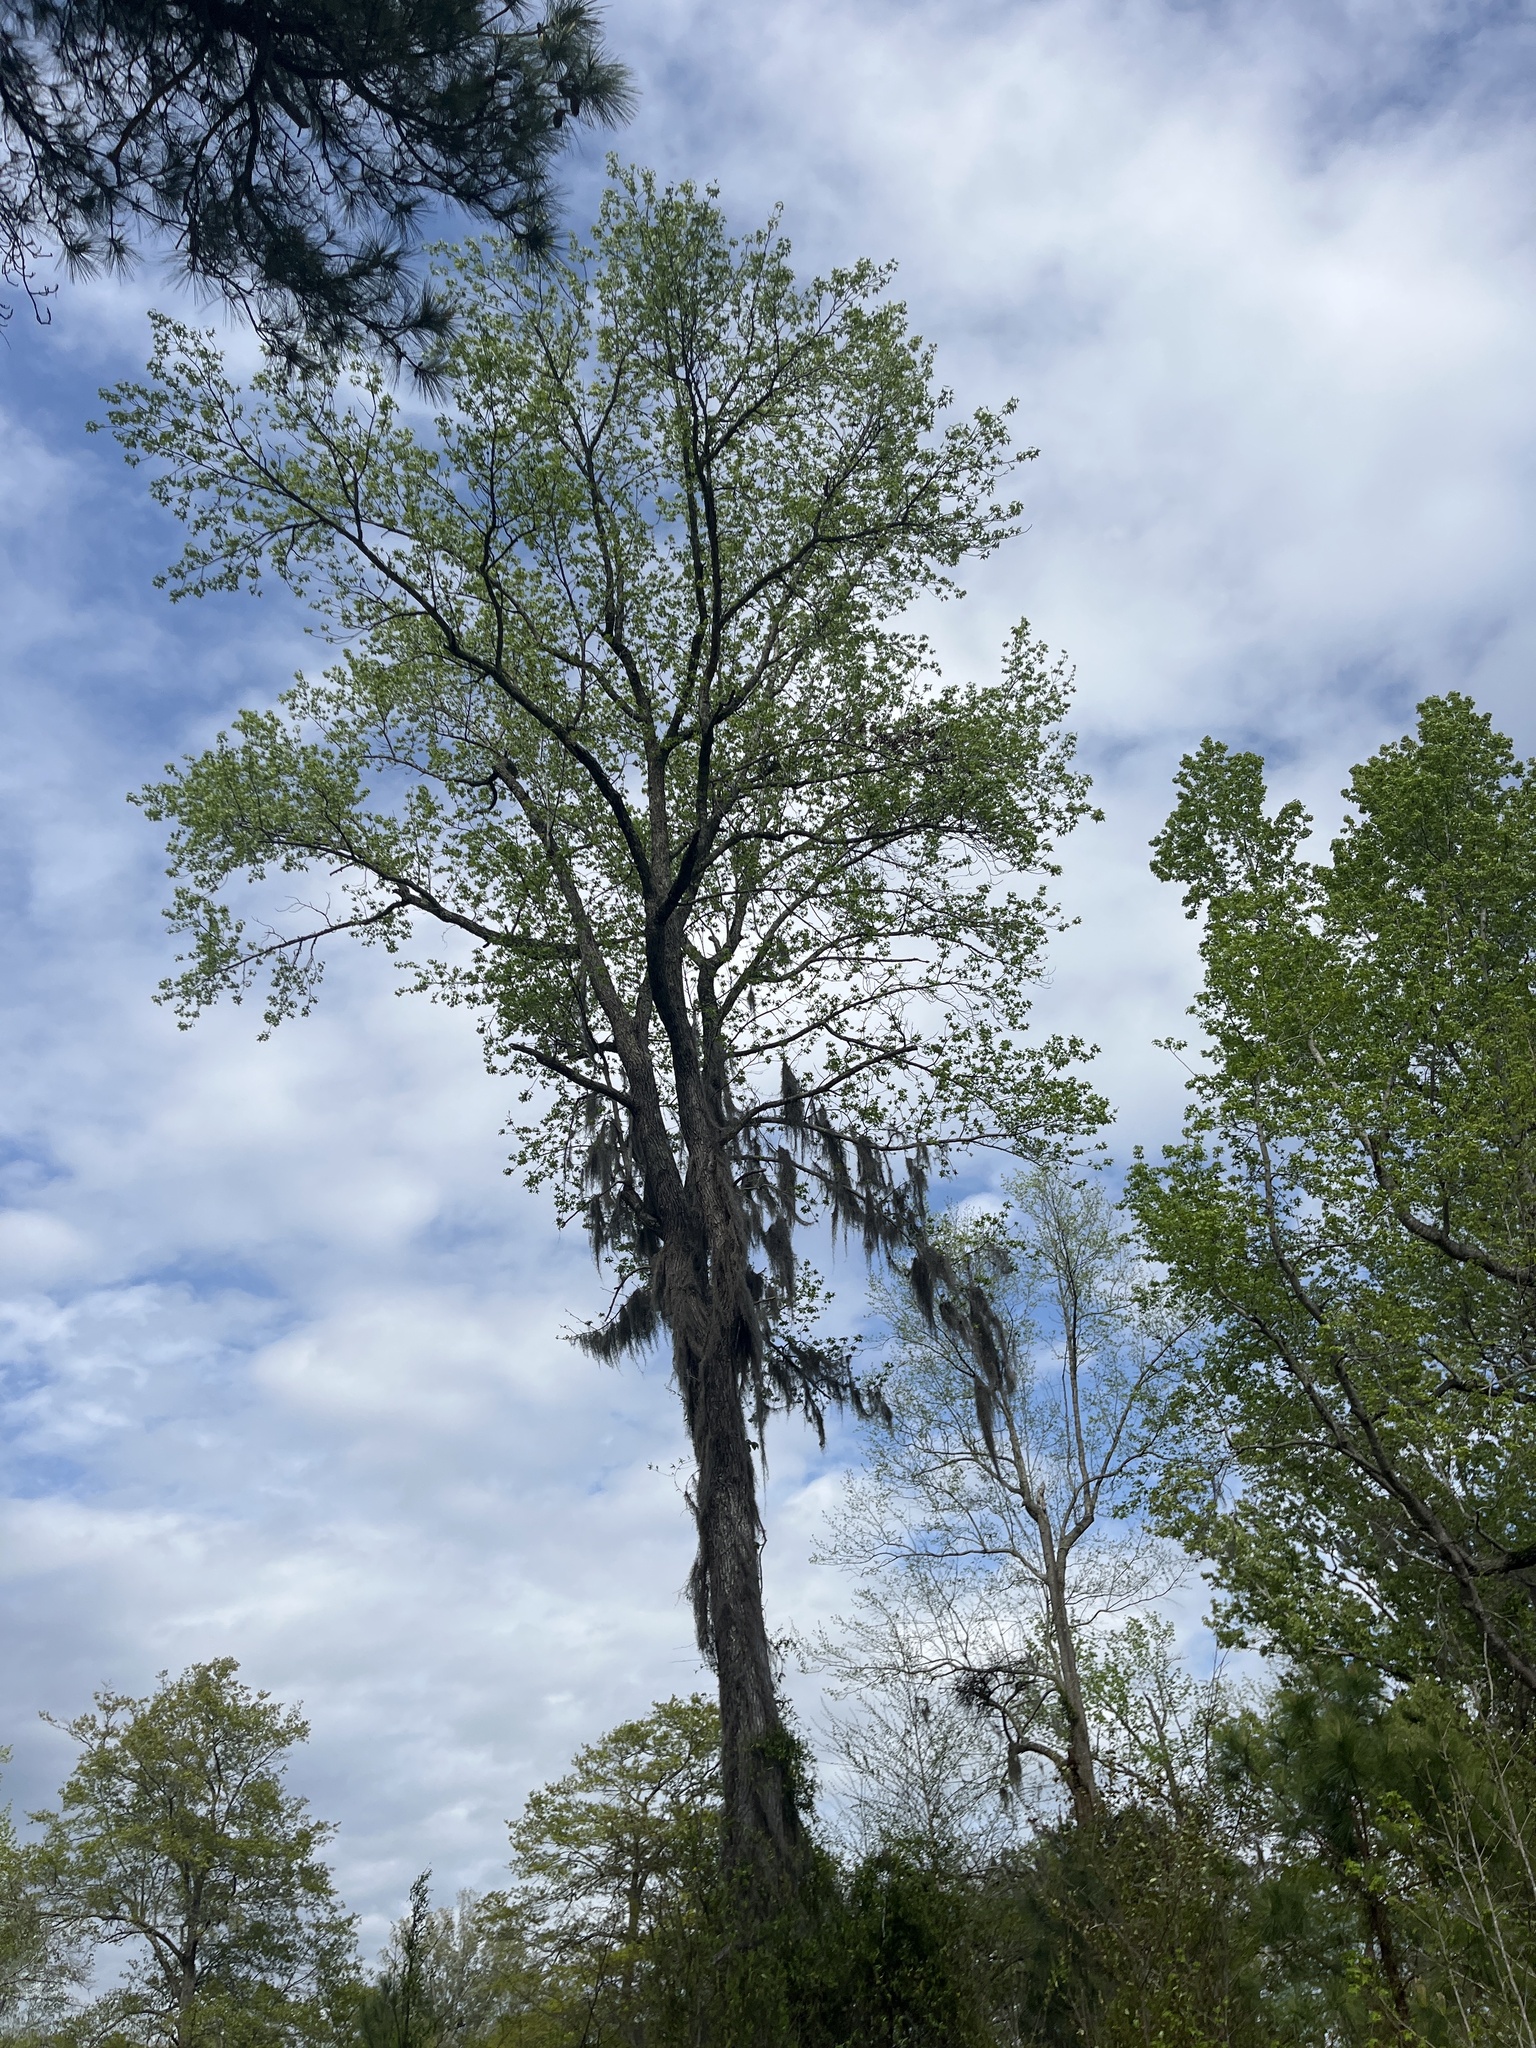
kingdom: Plantae
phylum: Tracheophyta
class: Liliopsida
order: Poales
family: Bromeliaceae
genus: Tillandsia
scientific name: Tillandsia usneoides
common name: Spanish moss
